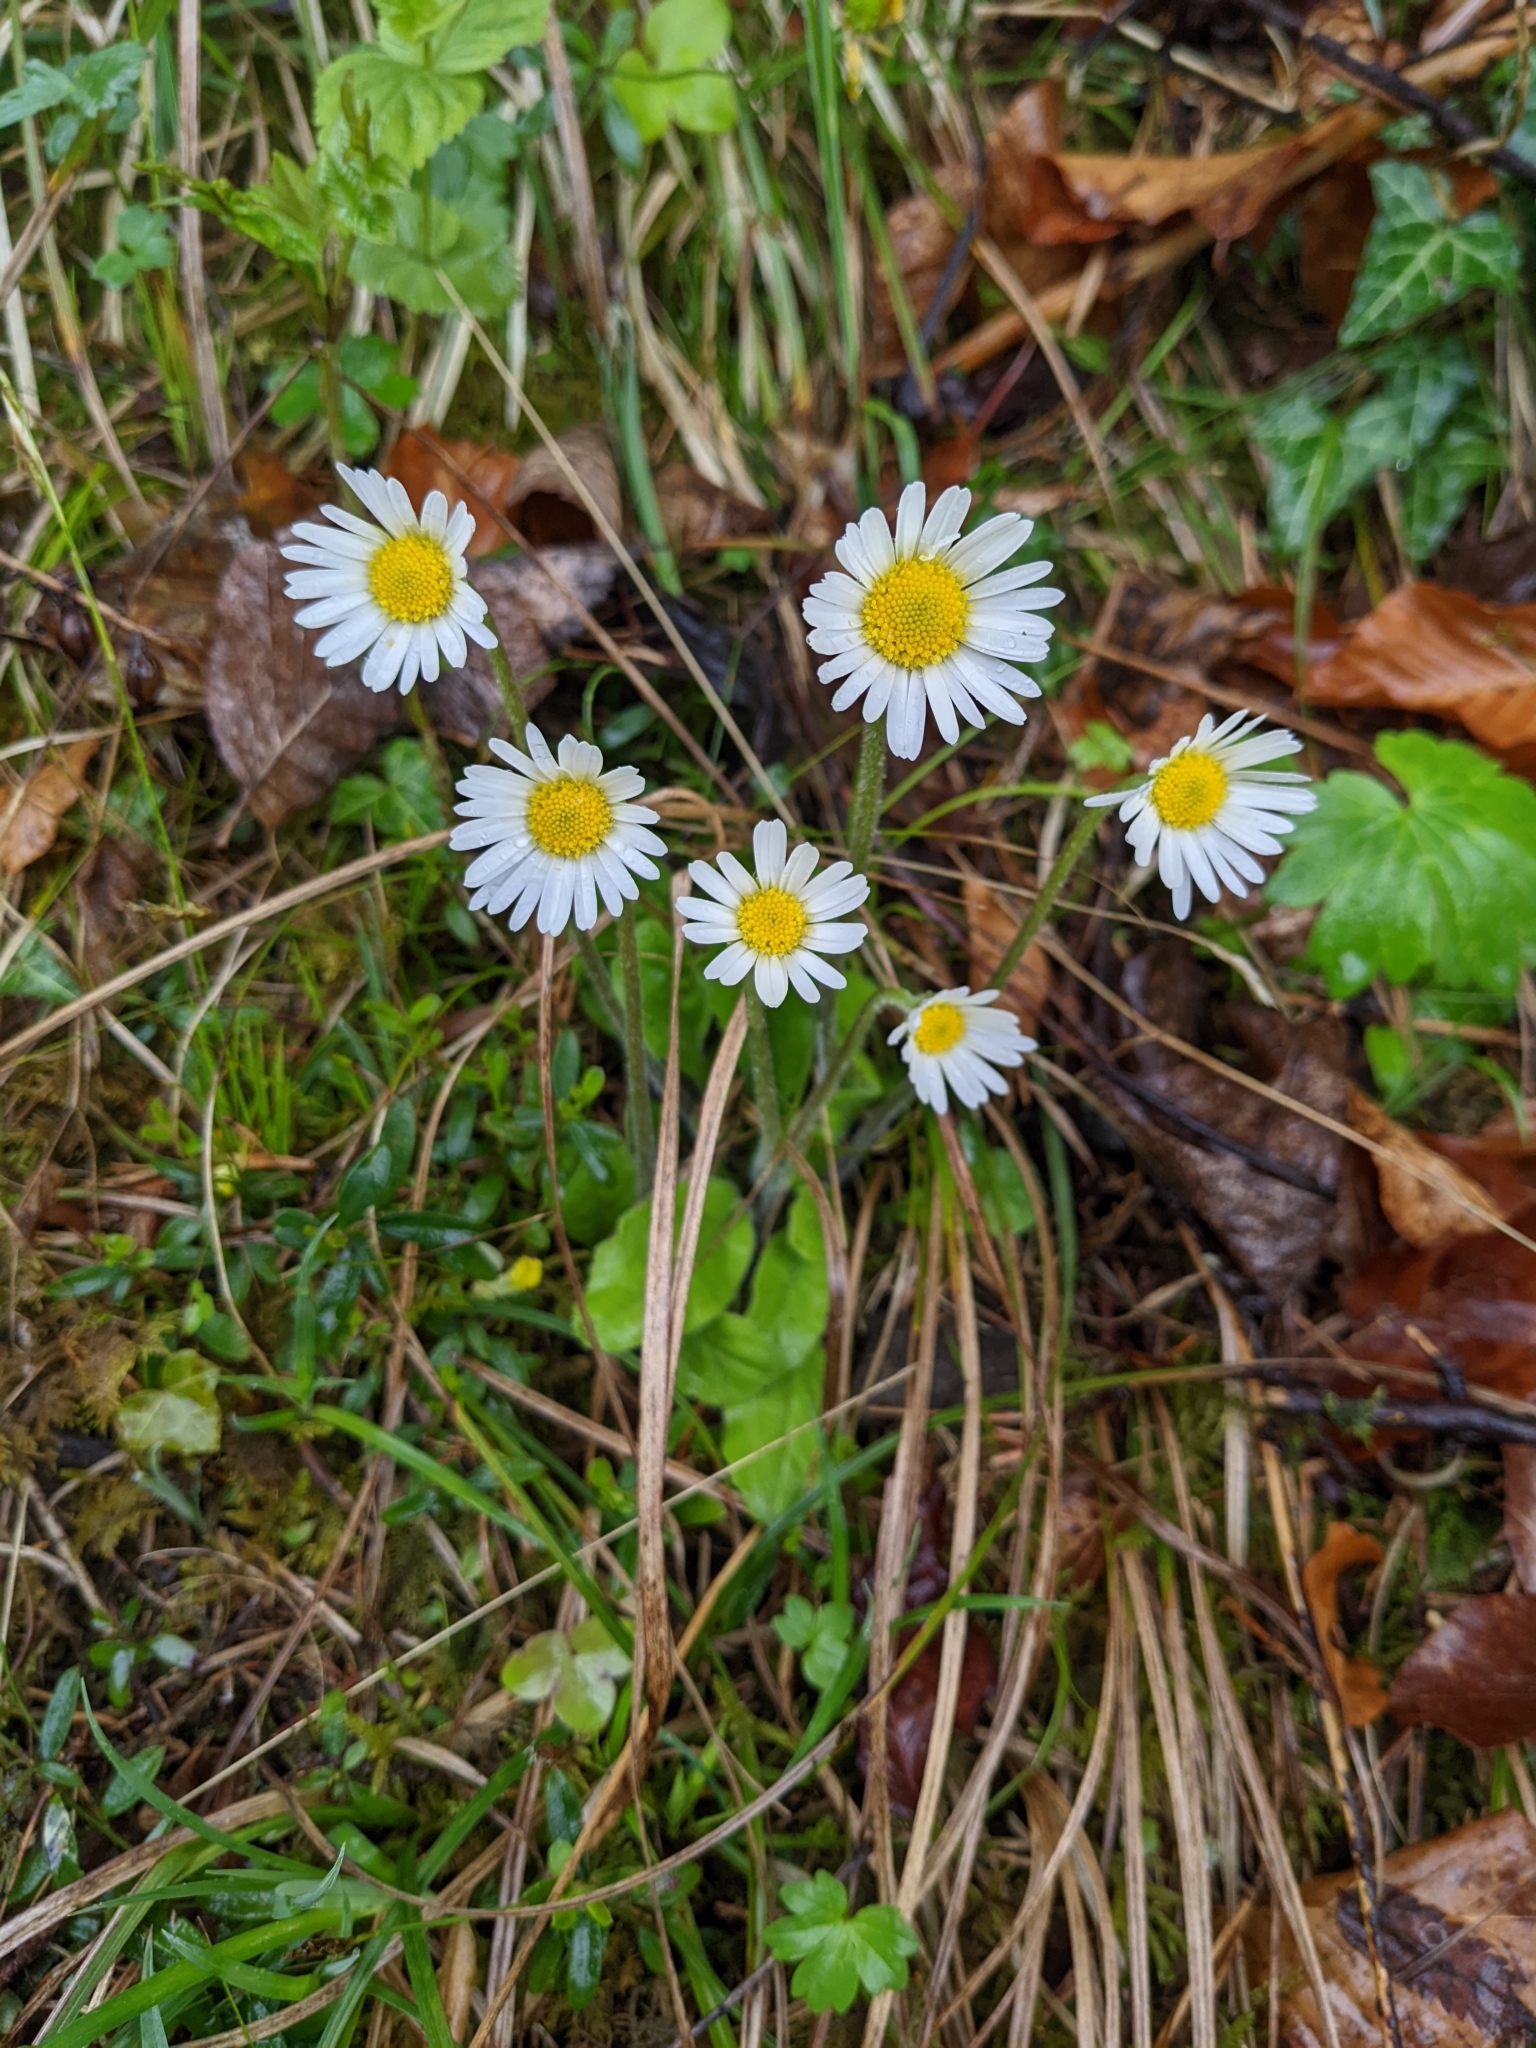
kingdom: Plantae
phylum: Tracheophyta
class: Magnoliopsida
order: Asterales
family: Asteraceae
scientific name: Asteraceae
